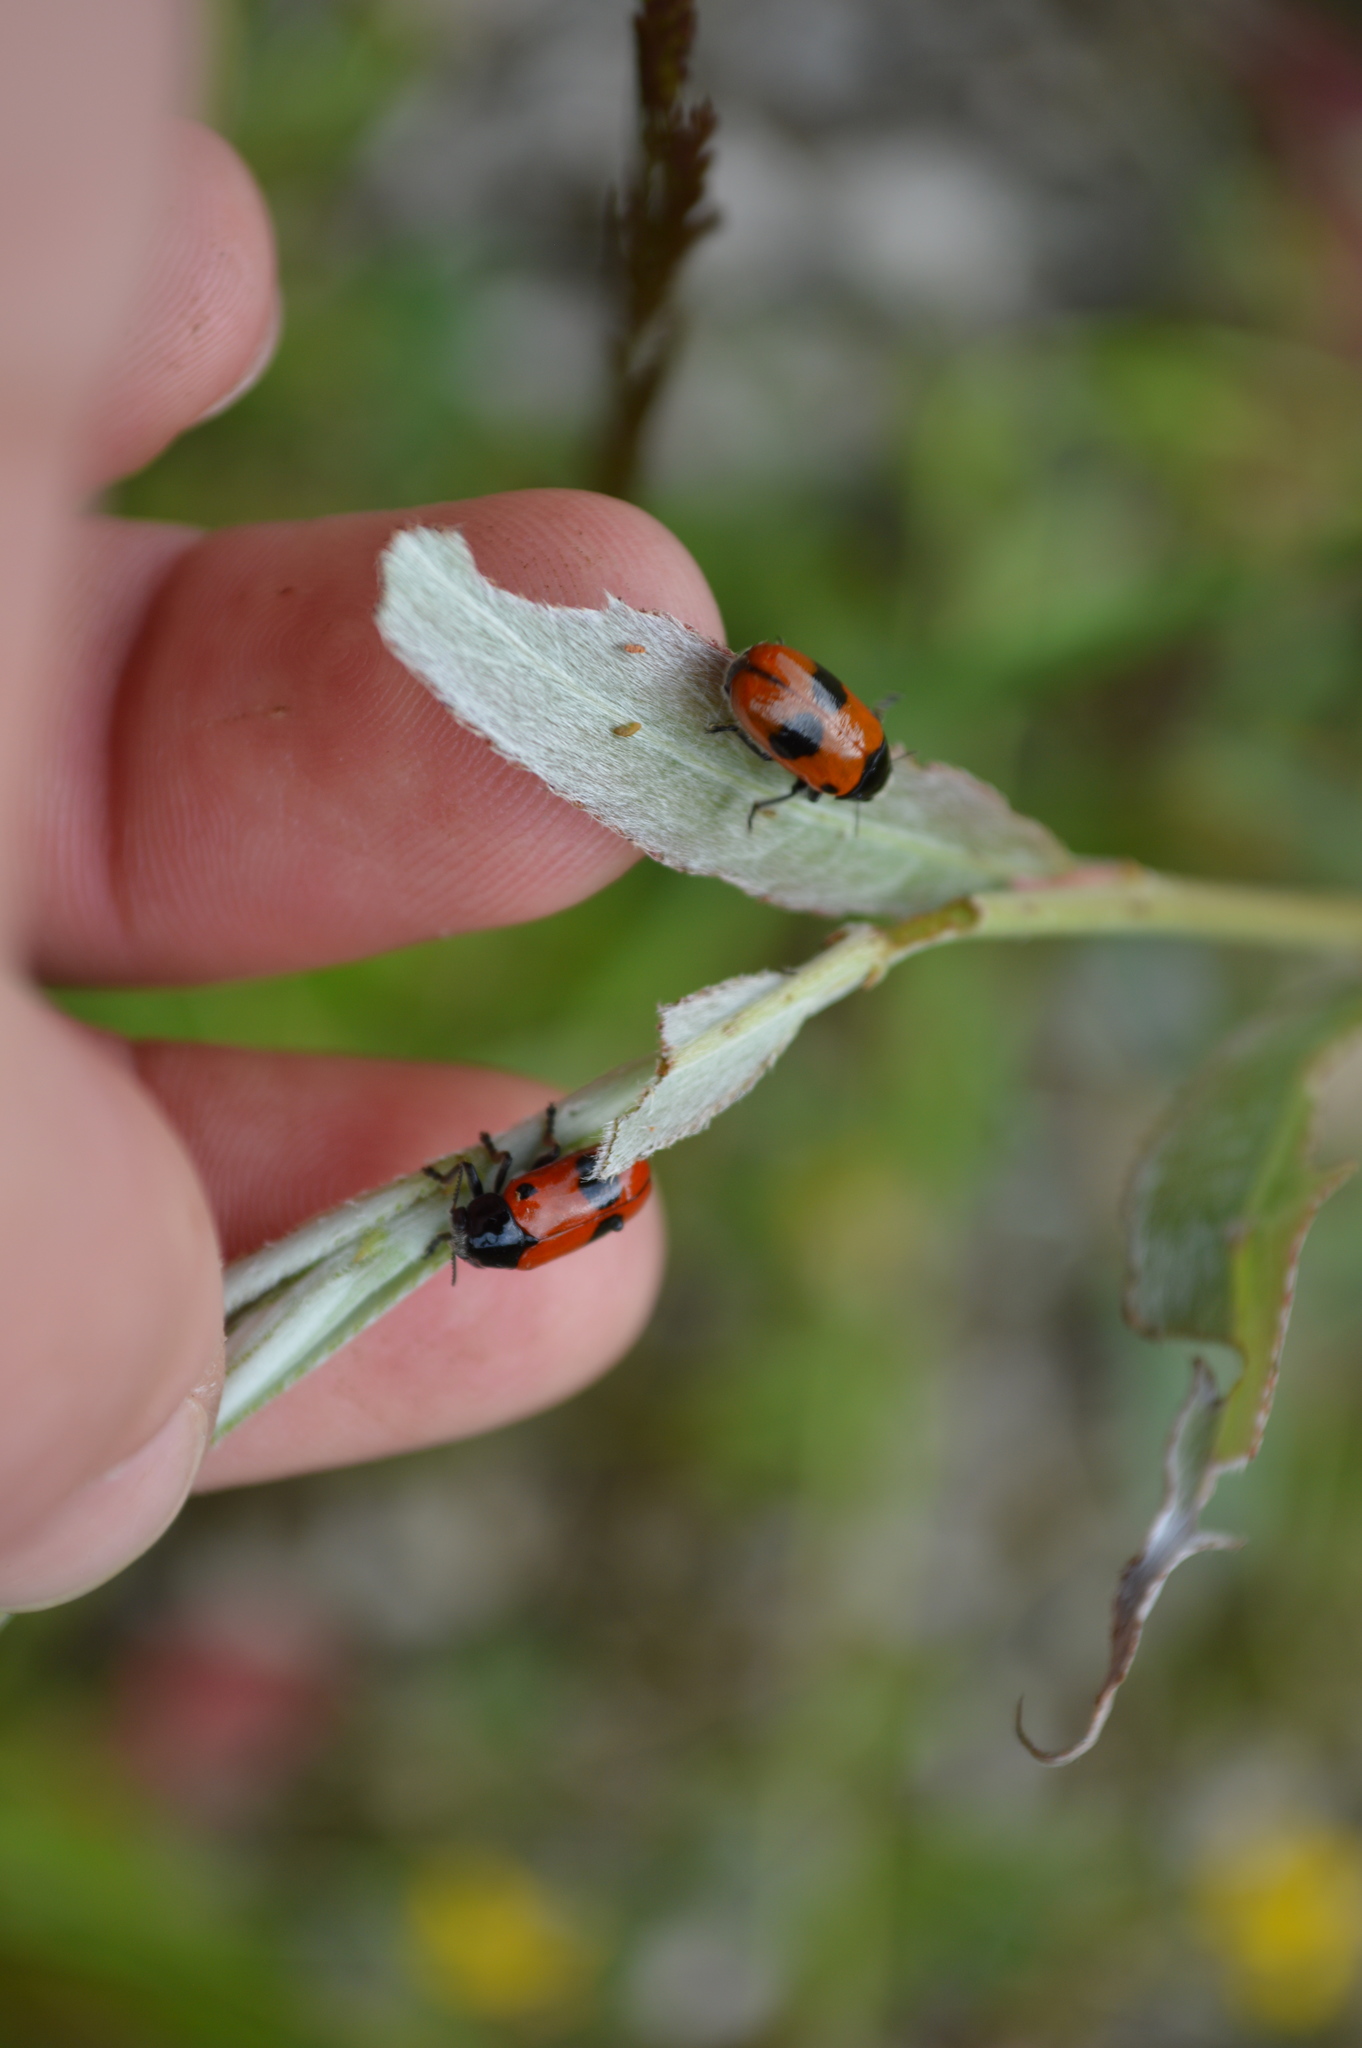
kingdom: Animalia
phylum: Arthropoda
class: Insecta
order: Coleoptera
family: Chrysomelidae
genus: Clytra
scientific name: Clytra laeviuscula
